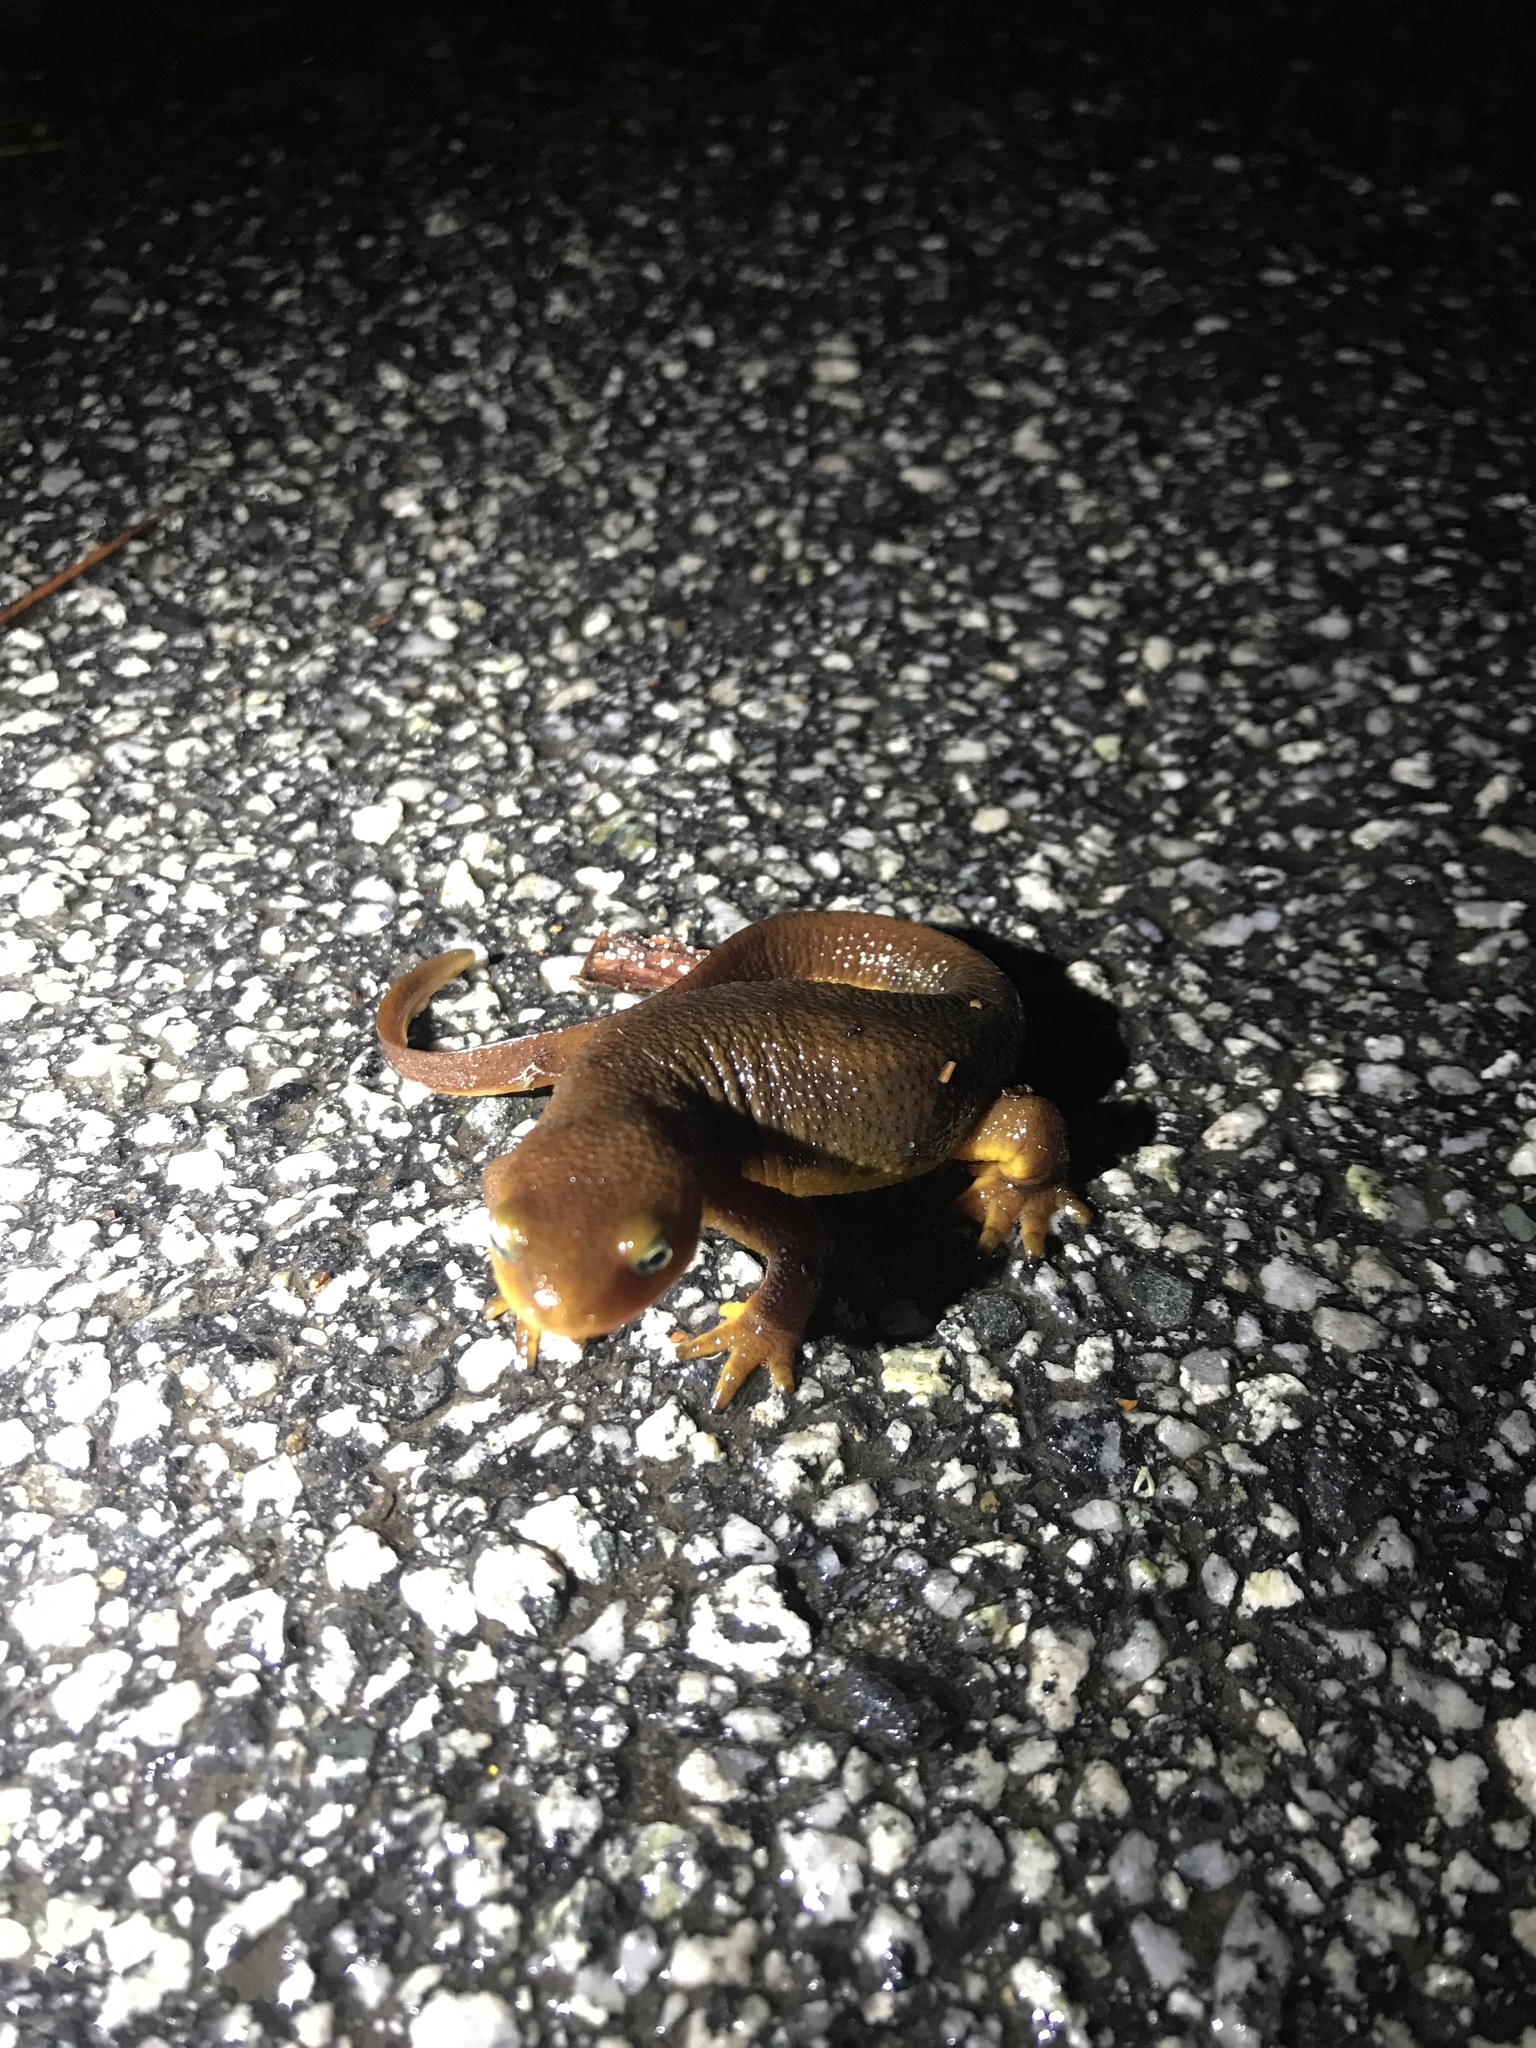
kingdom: Animalia
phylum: Chordata
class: Amphibia
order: Caudata
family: Salamandridae
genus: Taricha
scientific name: Taricha torosa
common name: California newt
